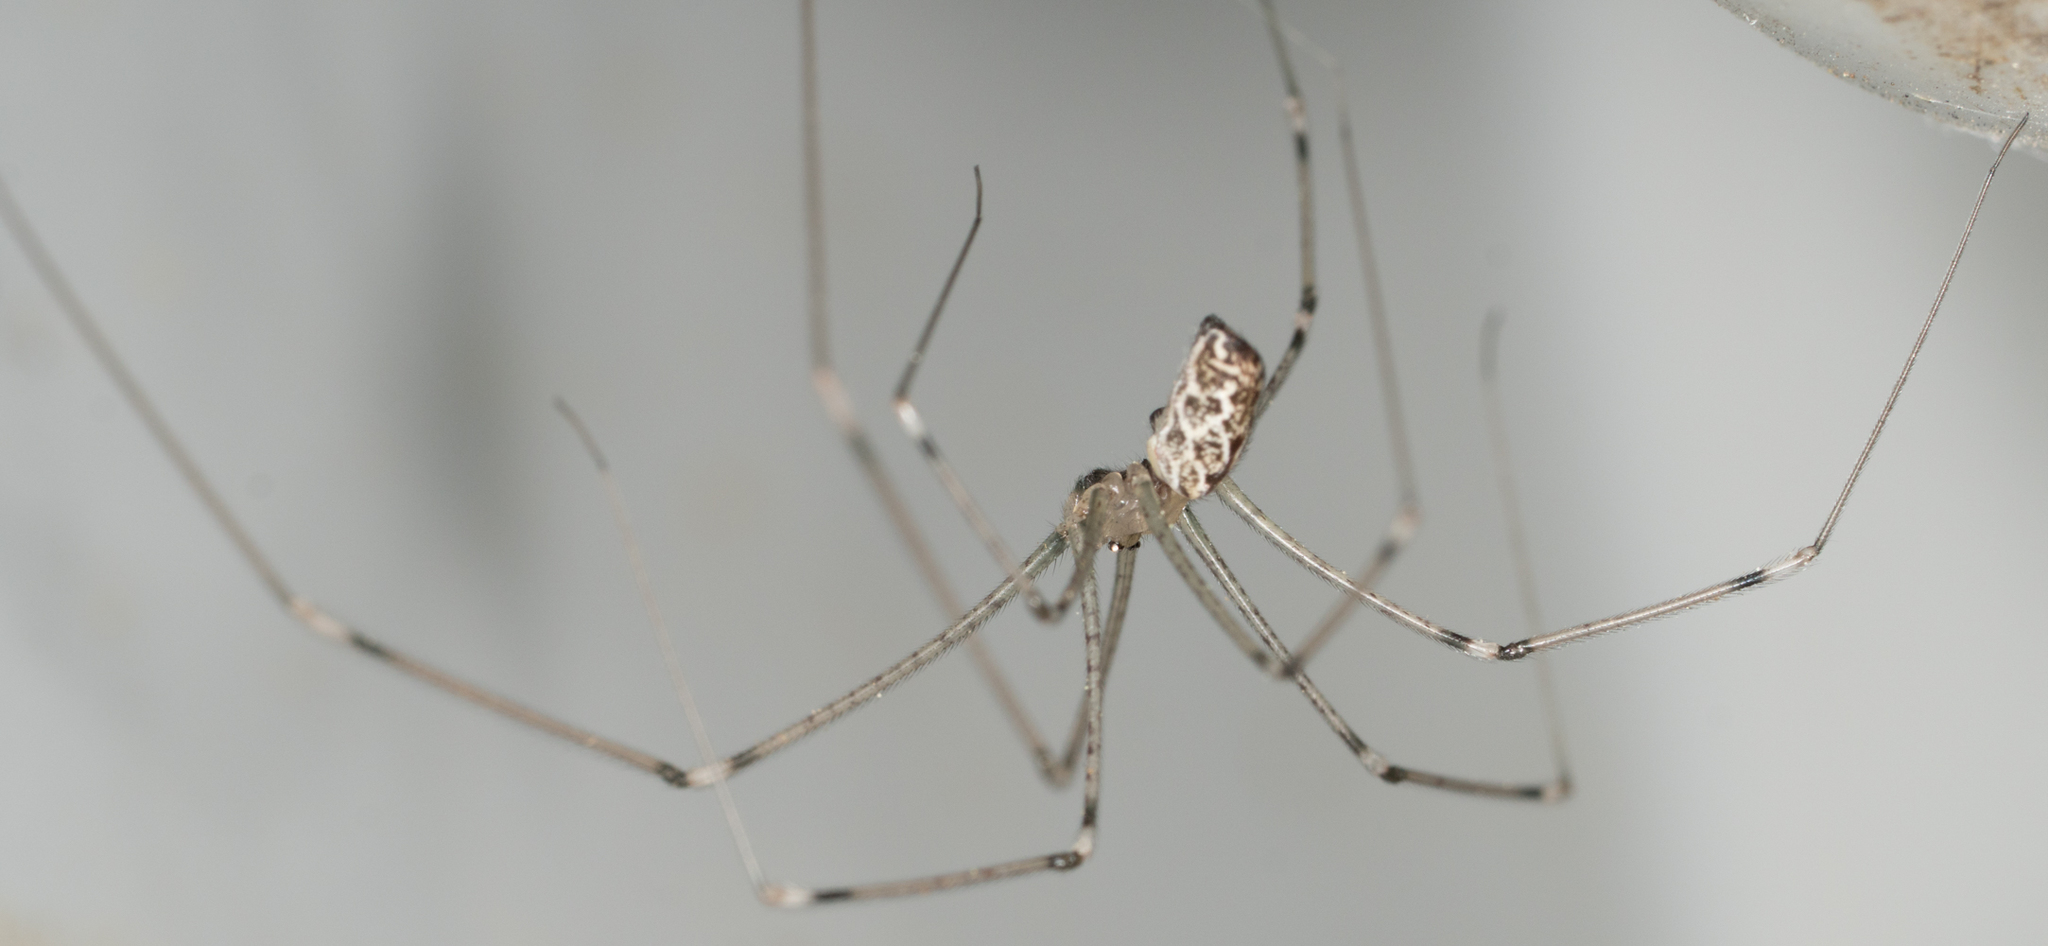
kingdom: Animalia
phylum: Arthropoda
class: Arachnida
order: Araneae
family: Pholcidae
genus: Holocnemus
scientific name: Holocnemus pluchei
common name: Marbled cellar spider
